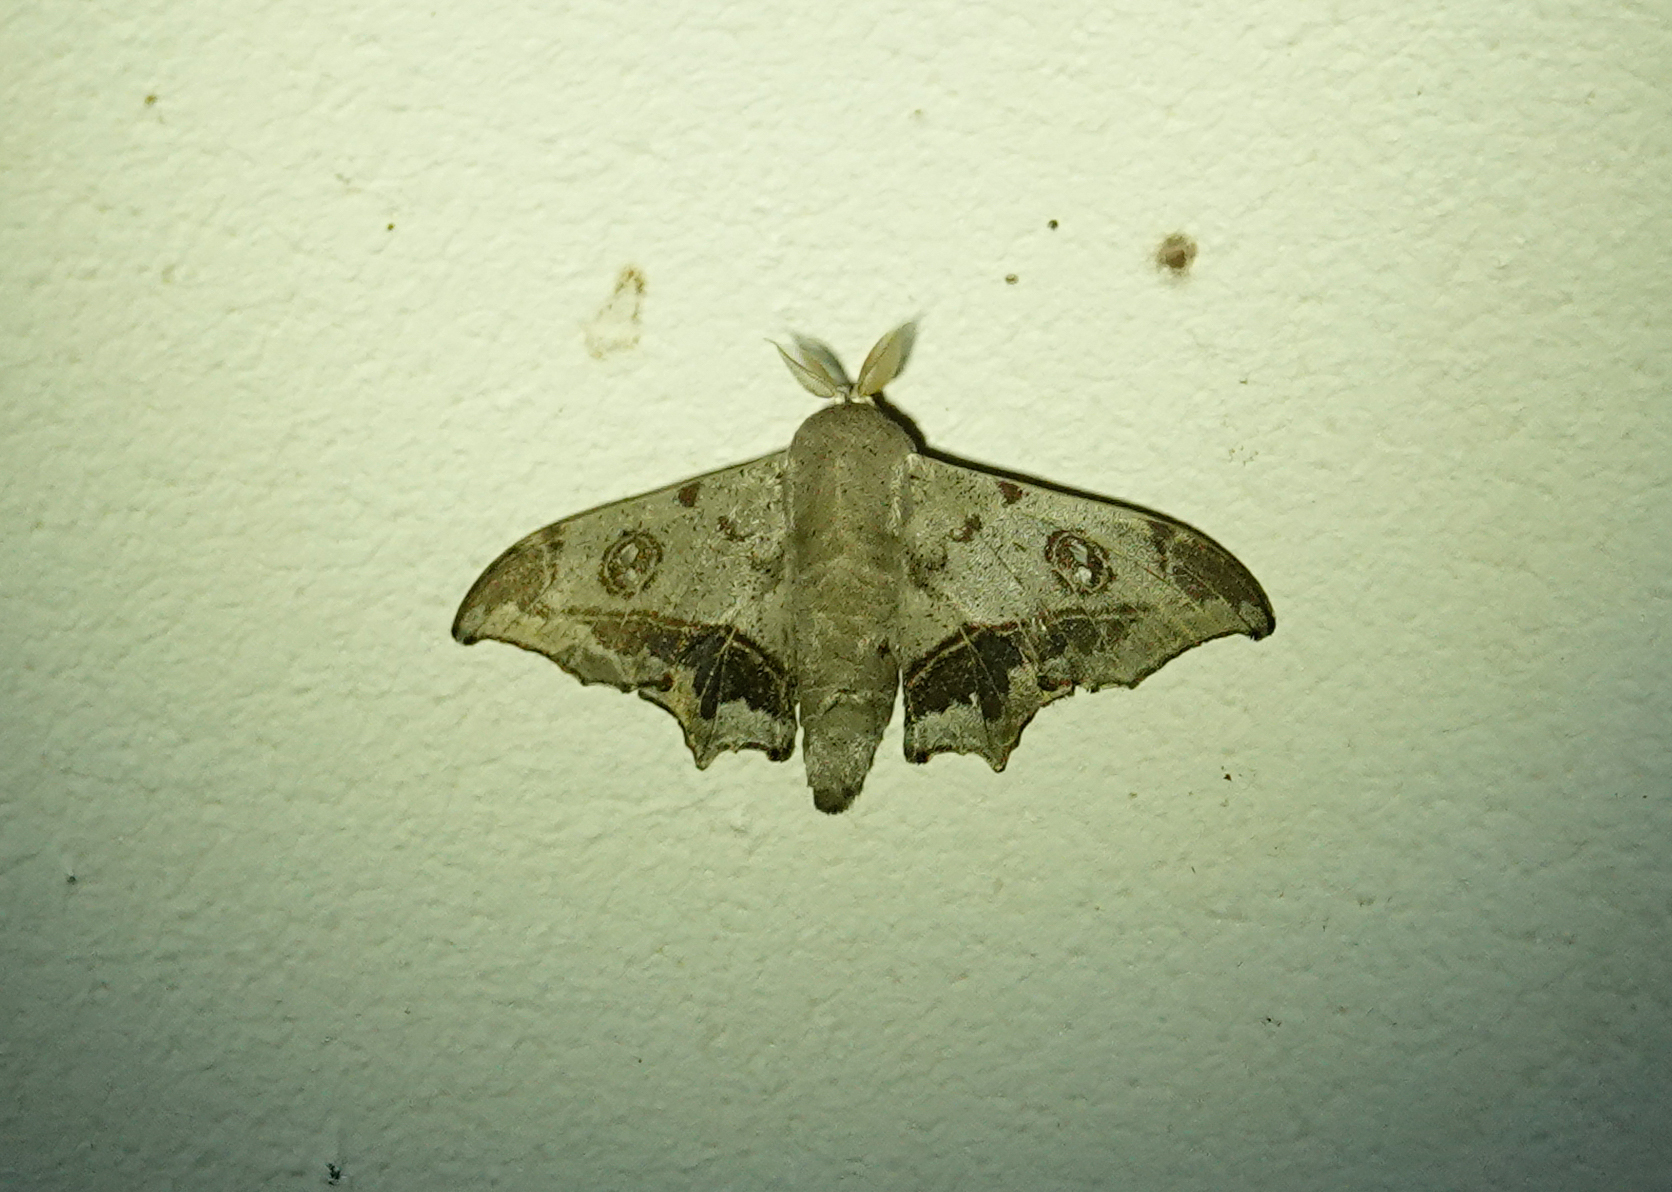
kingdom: Animalia
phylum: Arthropoda
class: Insecta
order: Lepidoptera
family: Mimallonidae
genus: Mimallo
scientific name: Mimallo amilia
